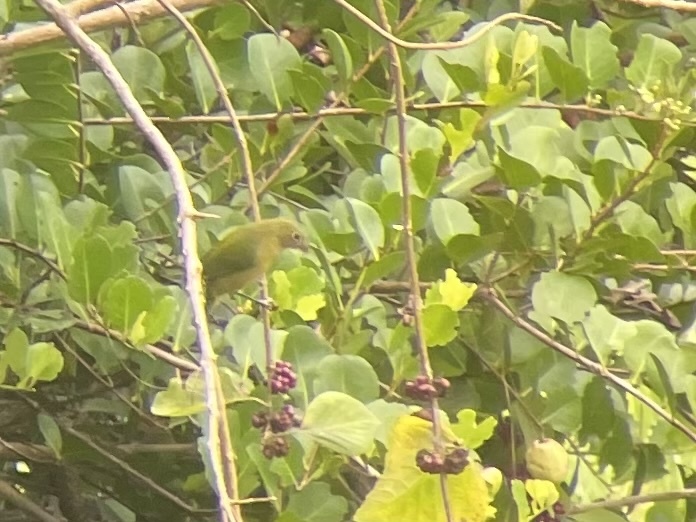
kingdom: Animalia
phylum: Chordata
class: Aves
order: Passeriformes
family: Cardinalidae
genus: Passerina
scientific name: Passerina ciris
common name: Painted bunting
